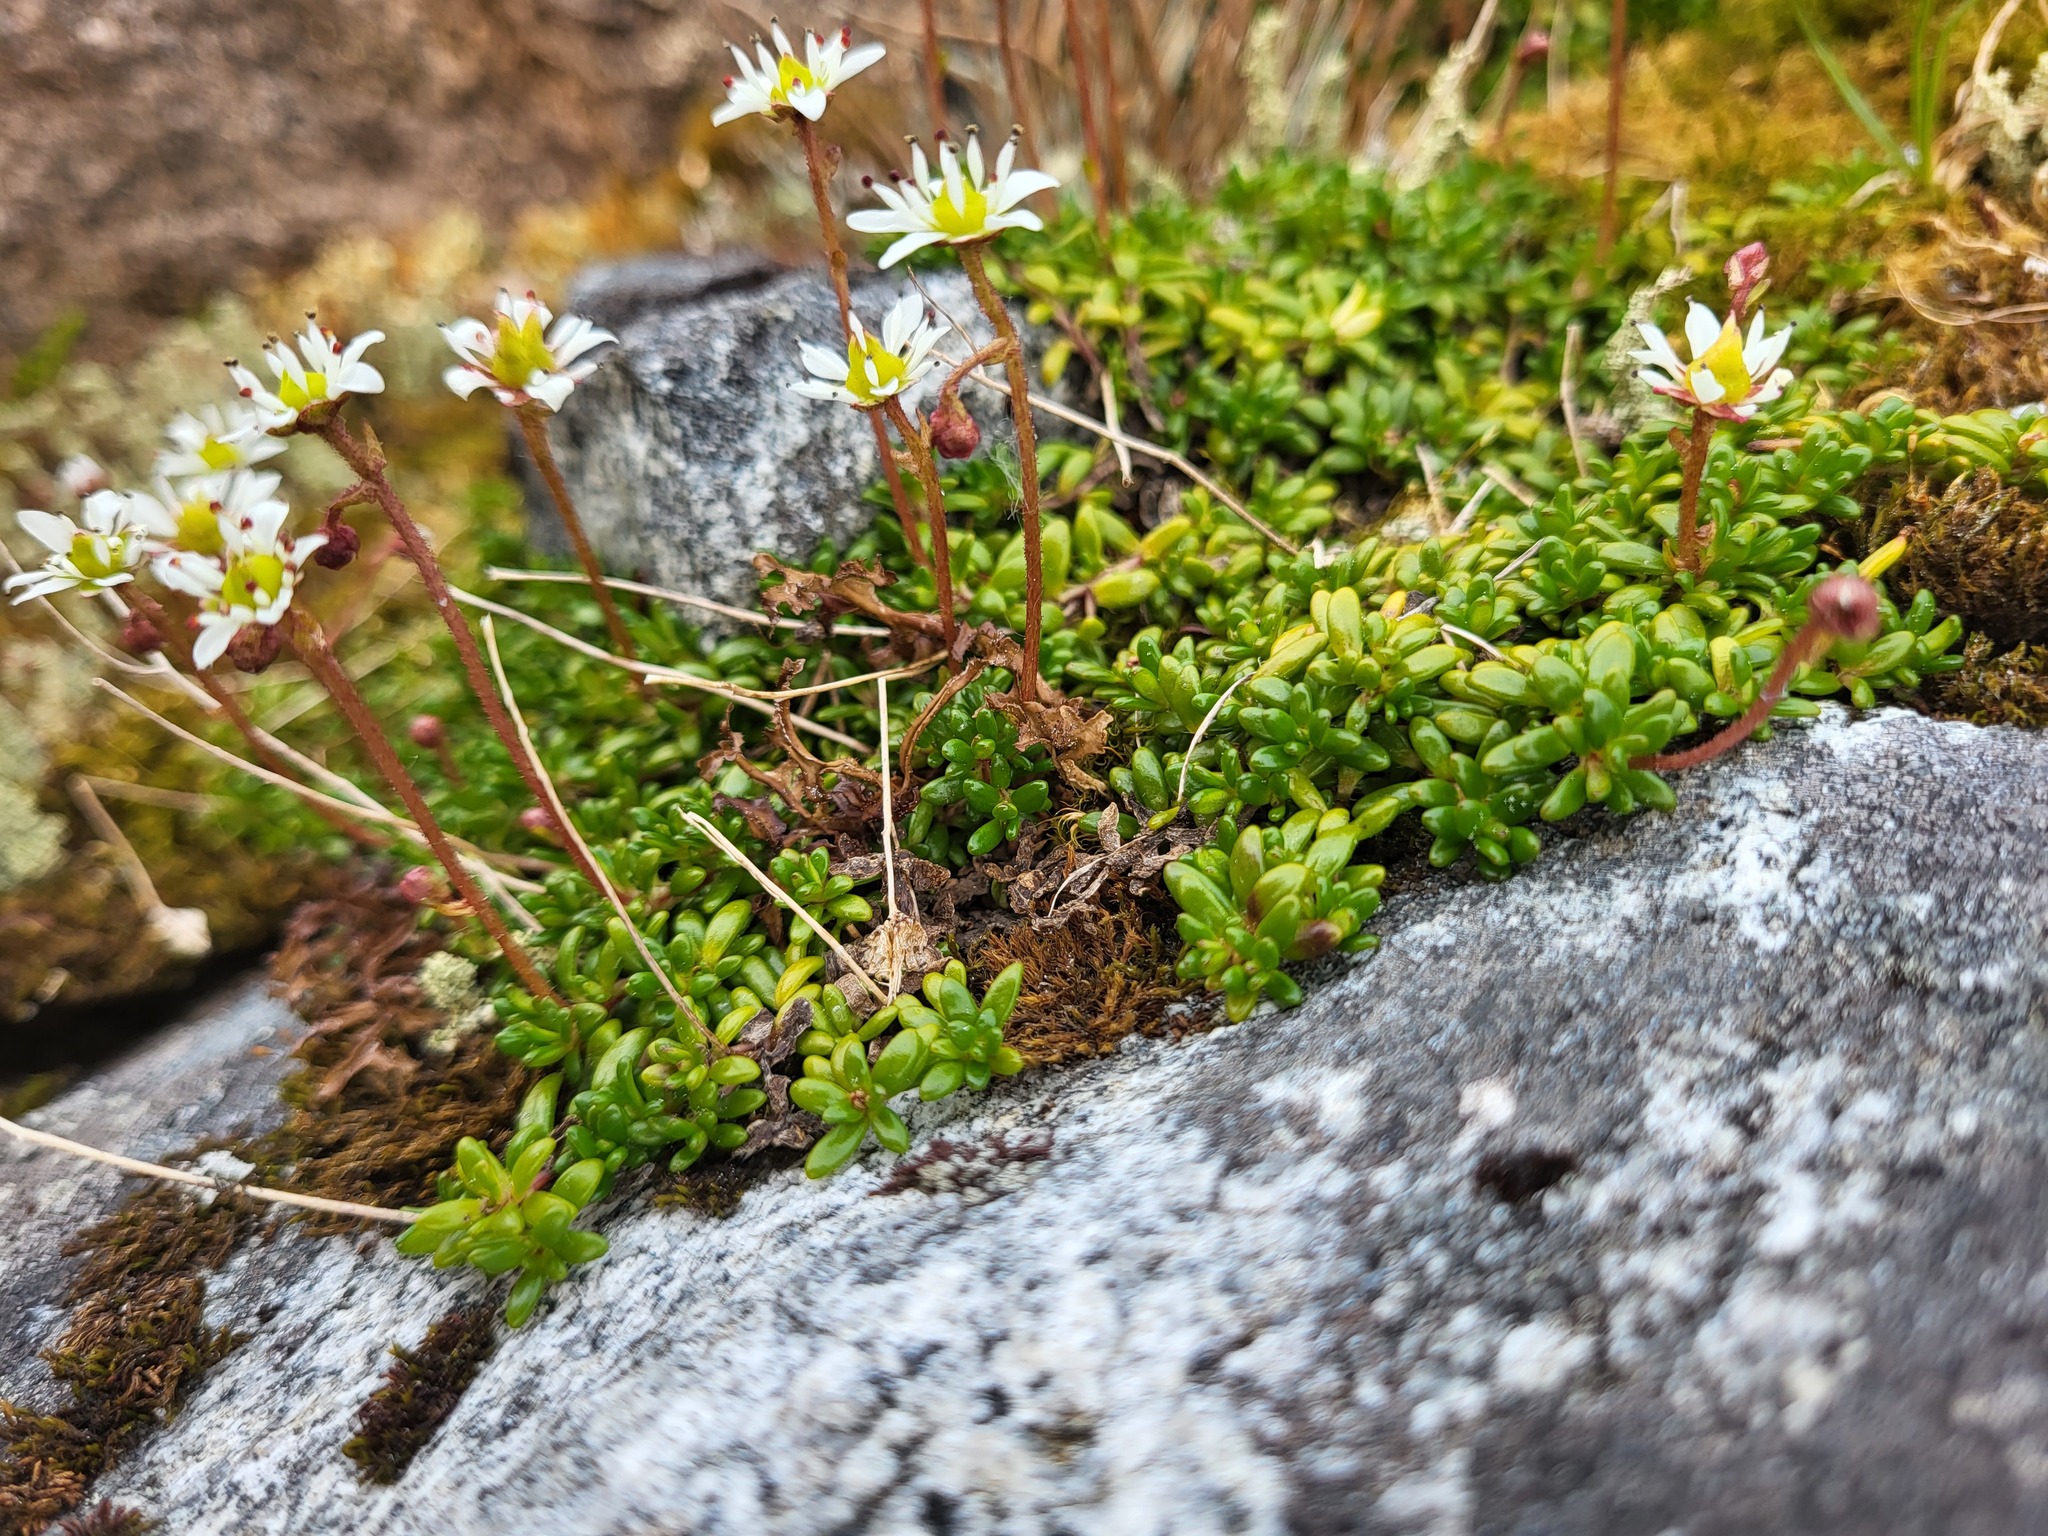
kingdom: Plantae
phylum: Tracheophyta
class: Magnoliopsida
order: Saxifragales
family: Saxifragaceae
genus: Micranthes
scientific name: Micranthes tolmiei
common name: Tolmie's saxifrage
